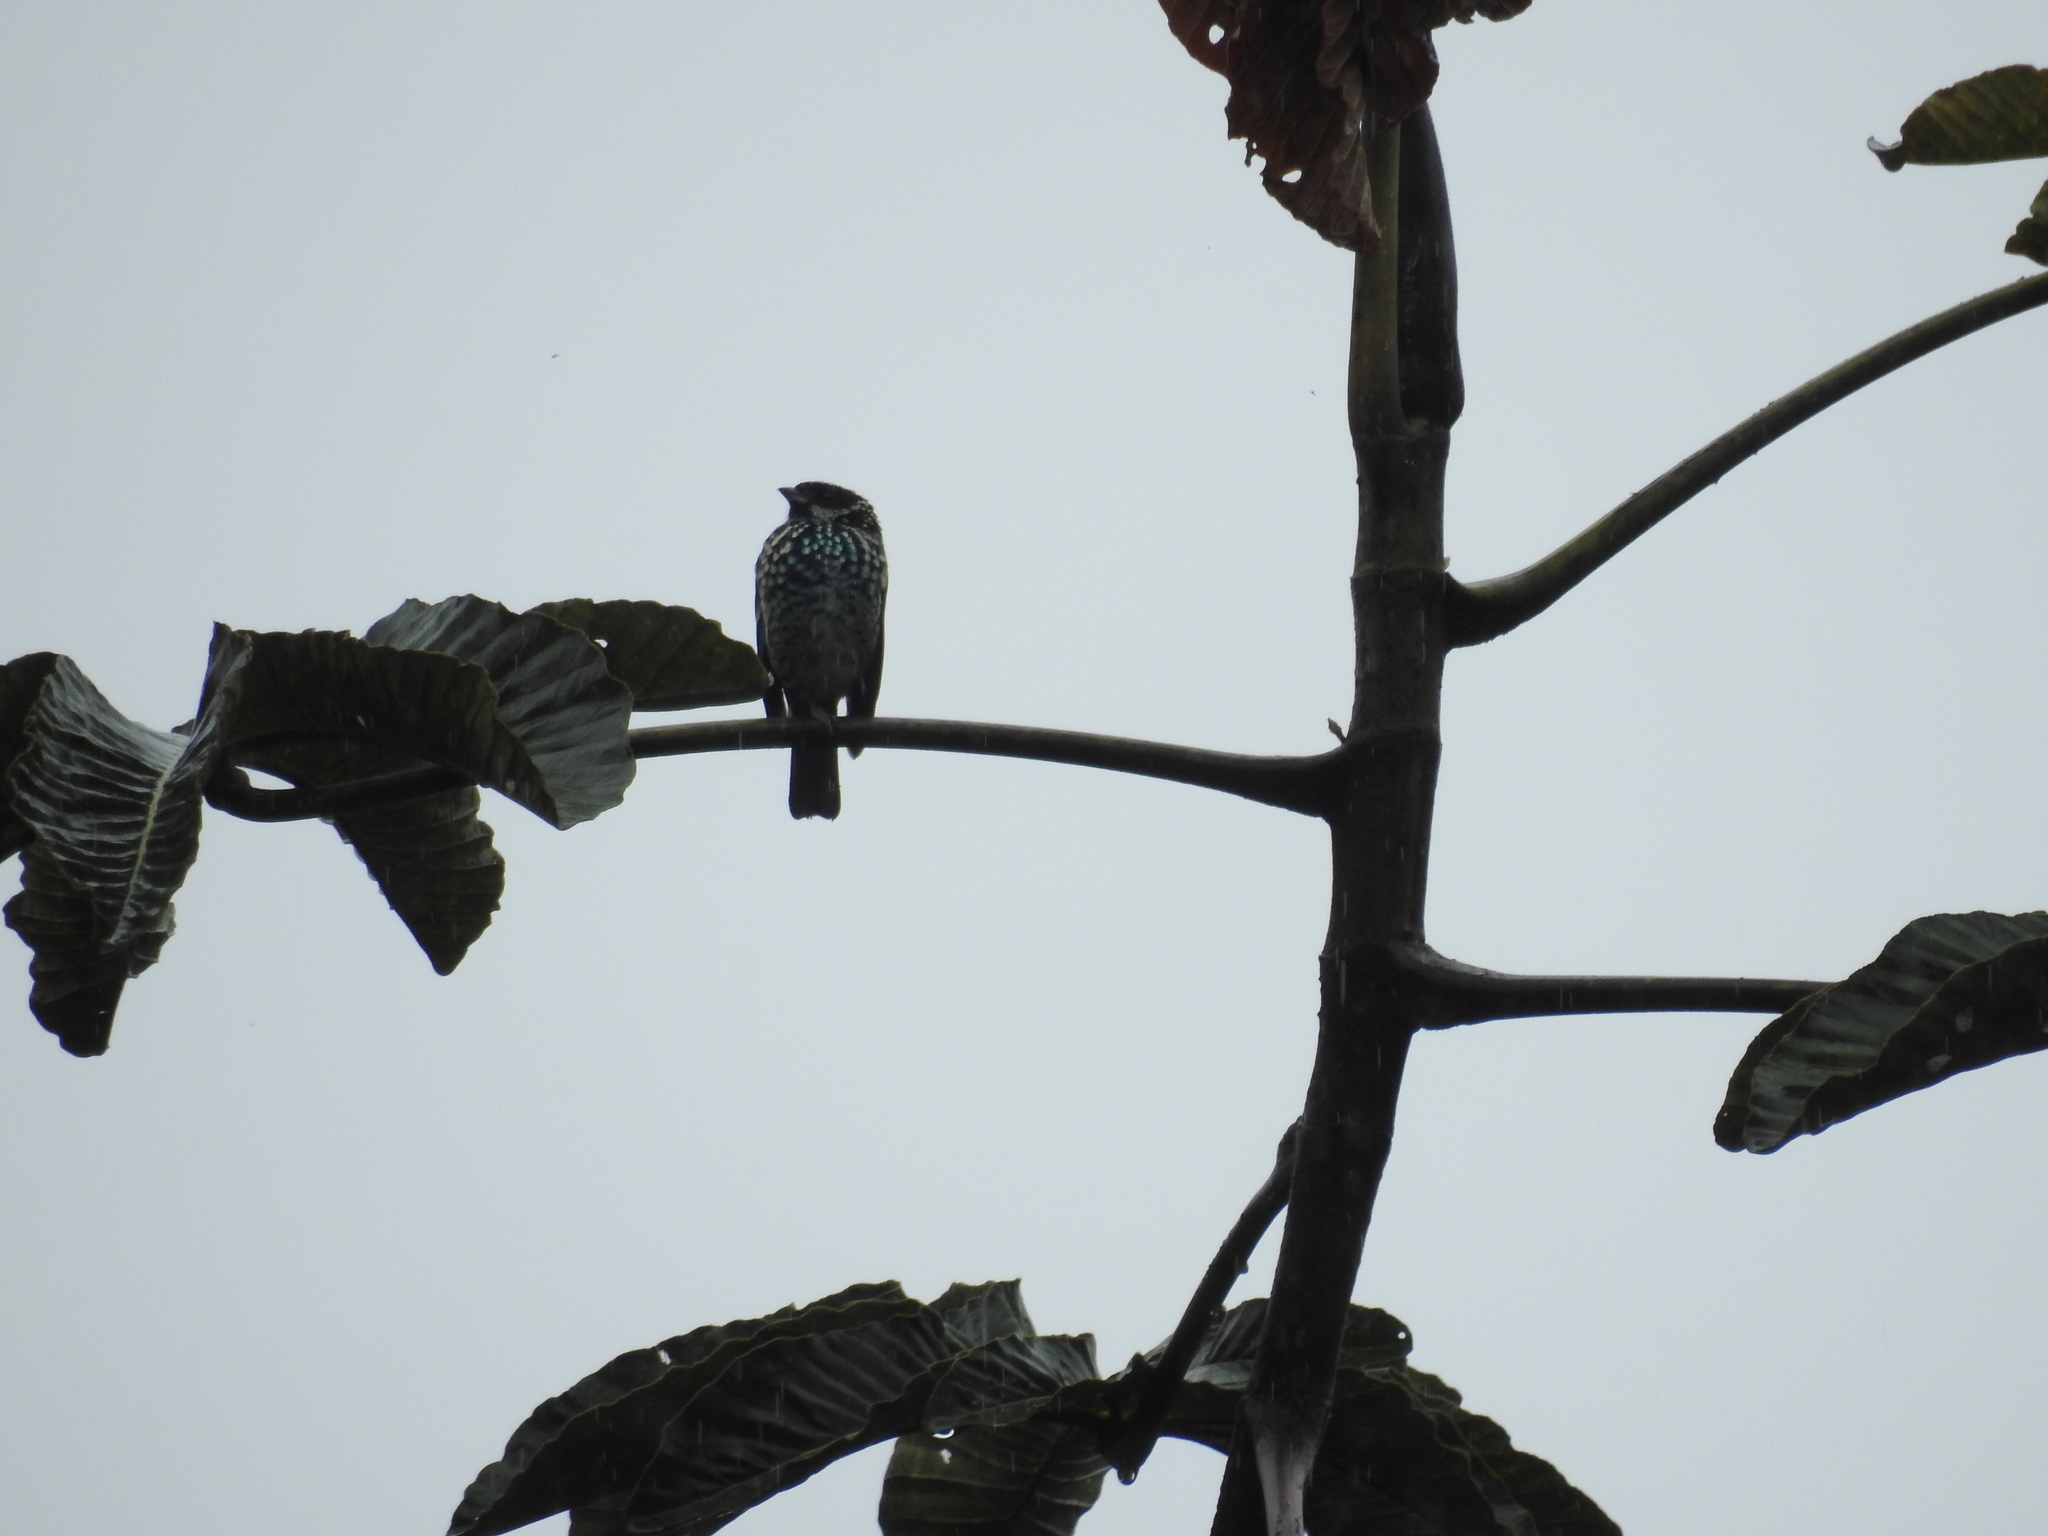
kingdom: Animalia
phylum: Chordata
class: Aves
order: Passeriformes
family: Thraupidae
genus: Tangara
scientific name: Tangara nigroviridis
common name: Beryl-spangled tanager
